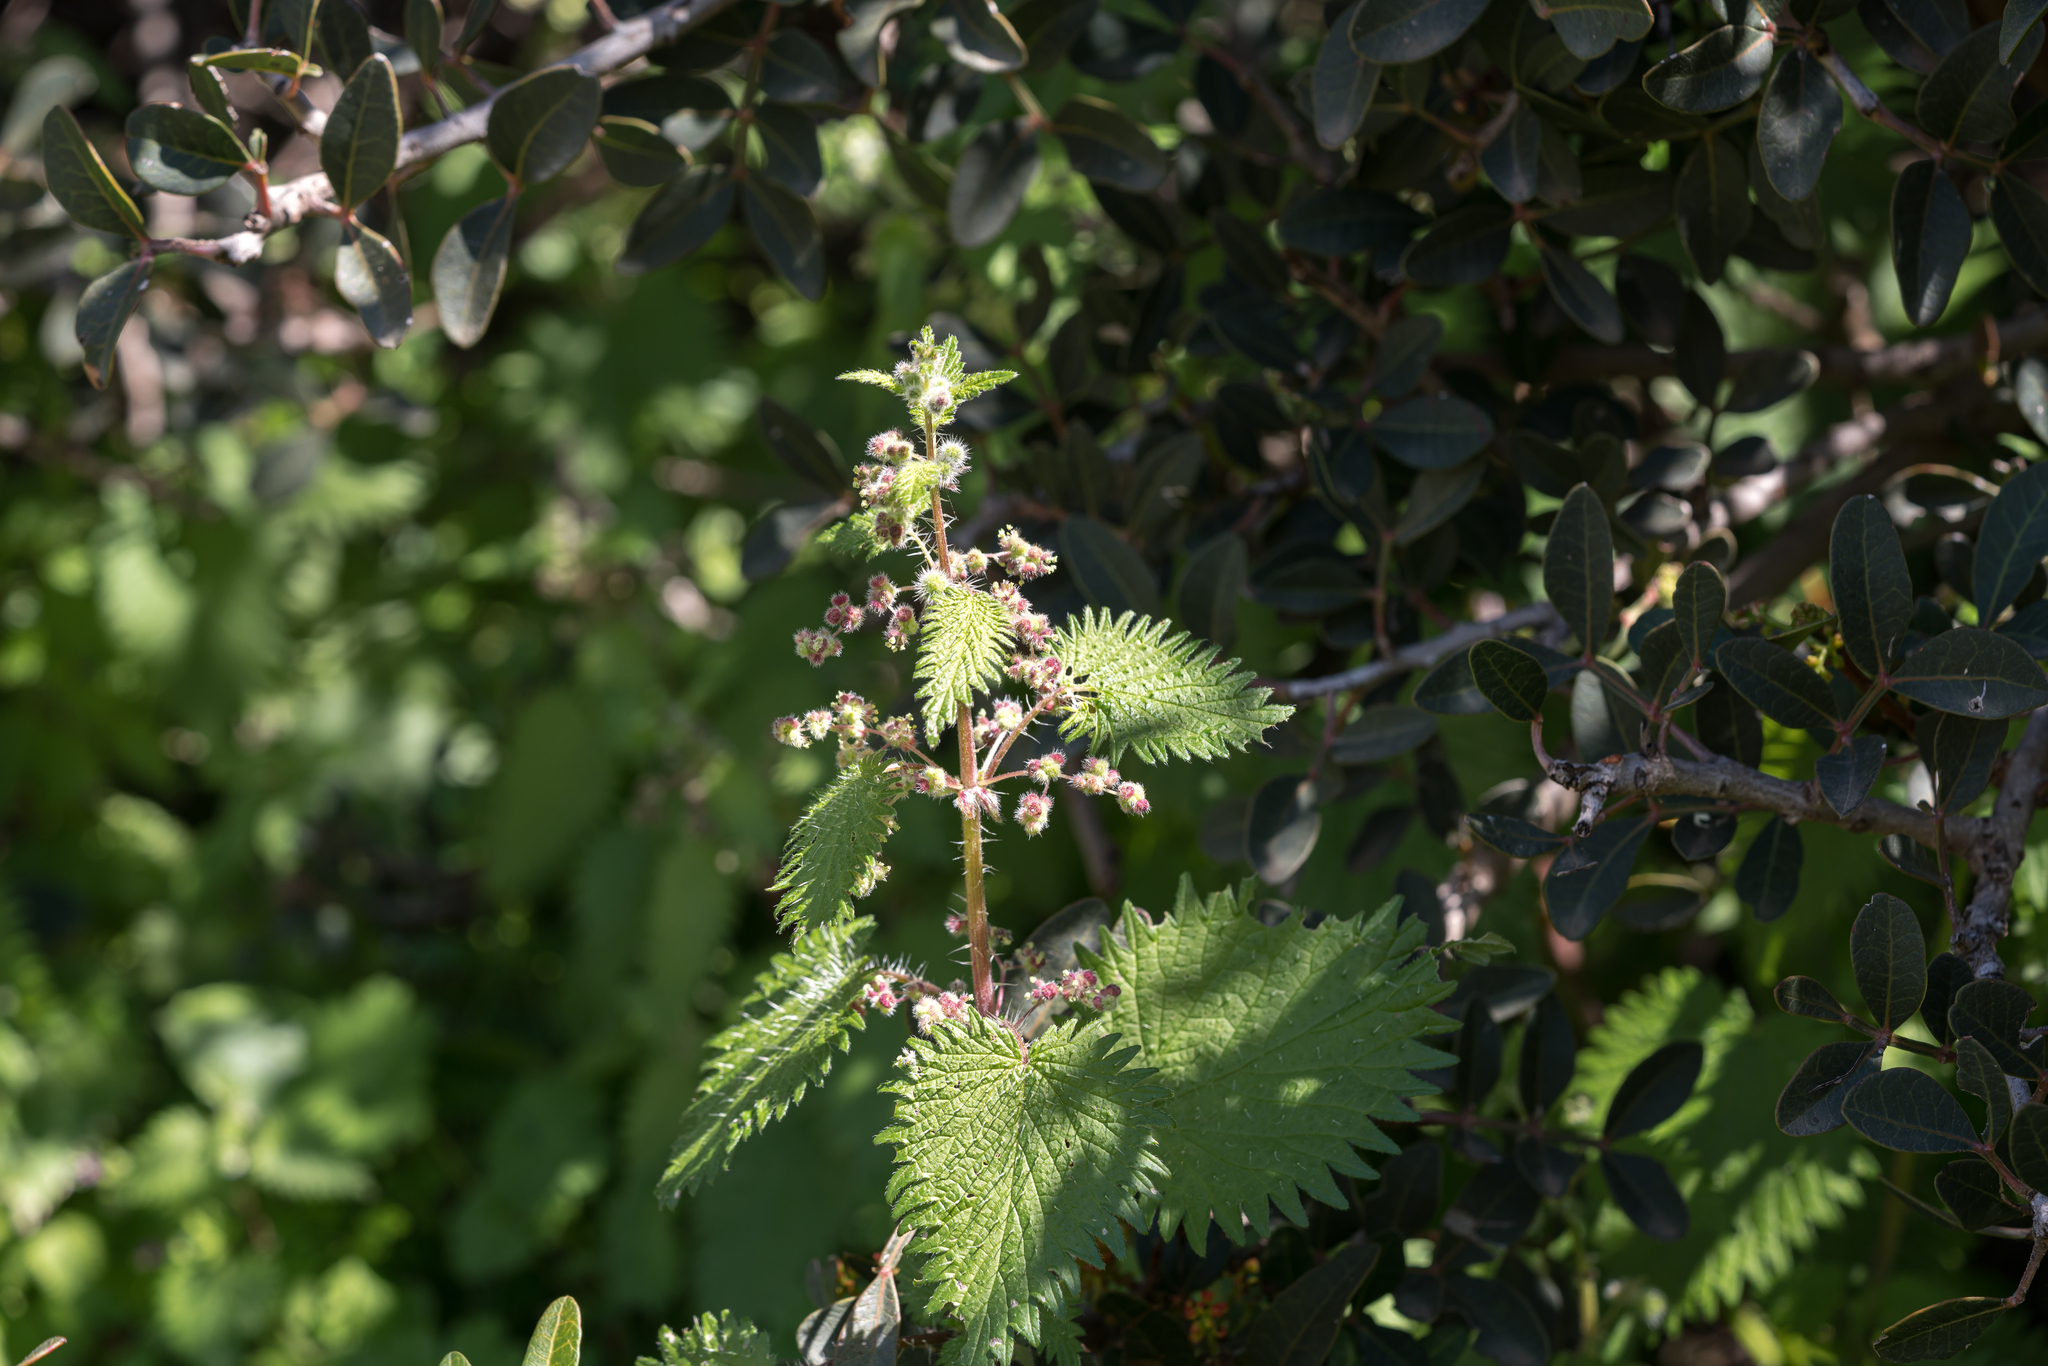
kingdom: Plantae
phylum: Tracheophyta
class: Magnoliopsida
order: Rosales
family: Urticaceae
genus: Urtica
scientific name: Urtica pilulifera
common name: Roman nettle
